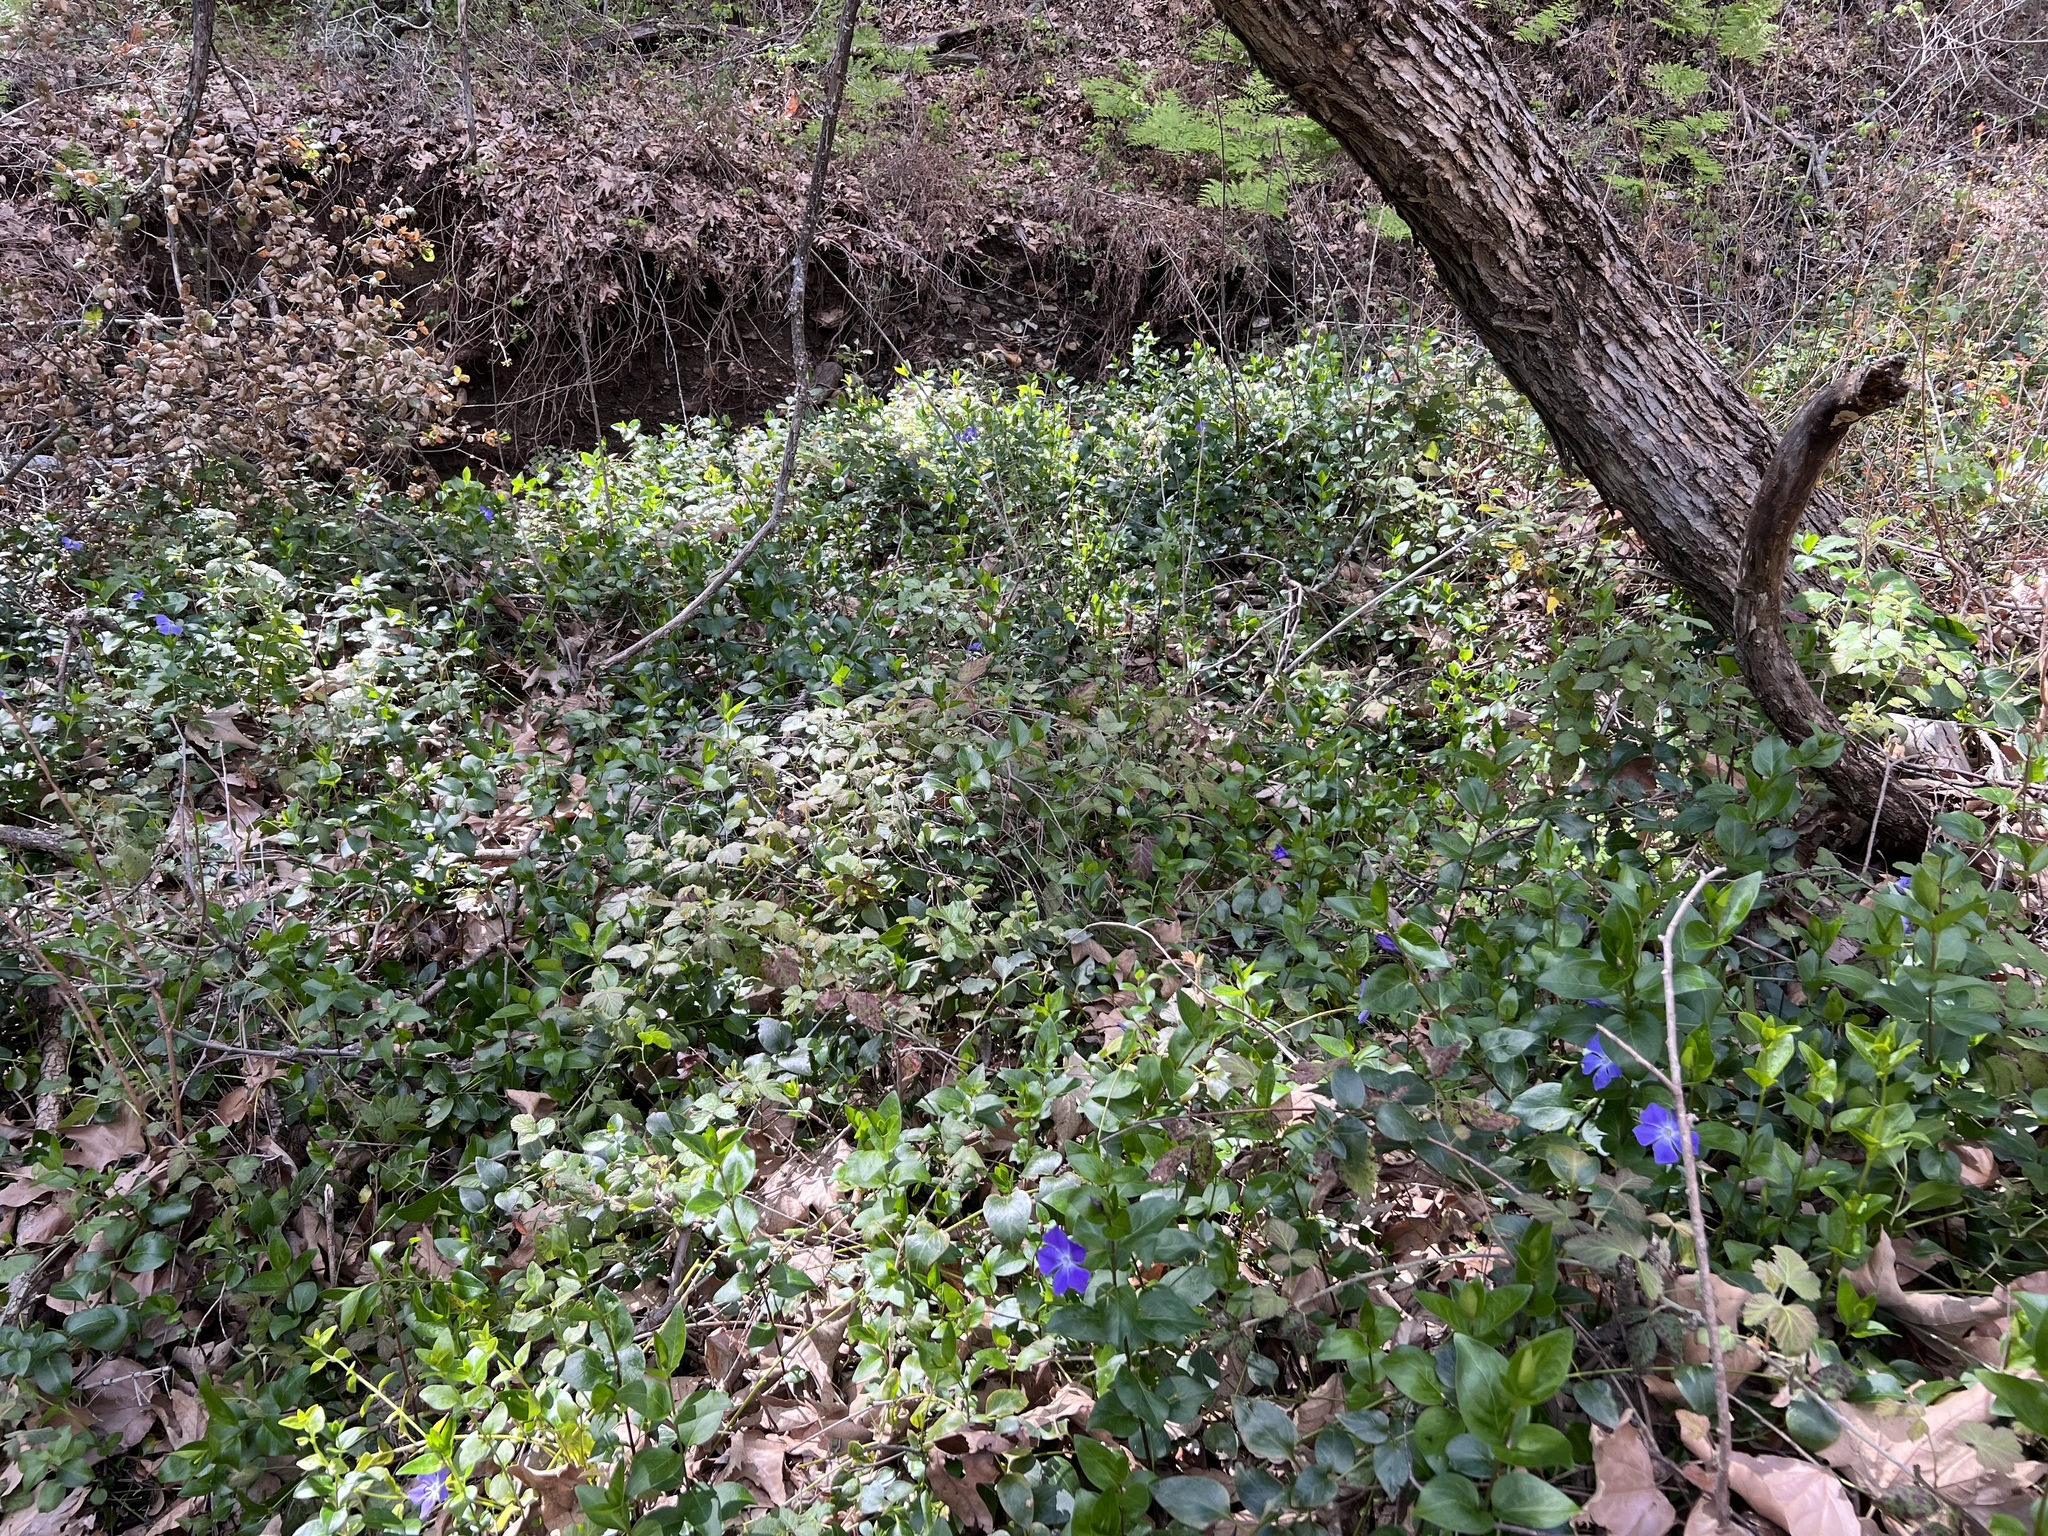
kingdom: Plantae
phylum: Tracheophyta
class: Magnoliopsida
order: Gentianales
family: Apocynaceae
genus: Vinca
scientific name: Vinca major
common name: Greater periwinkle
